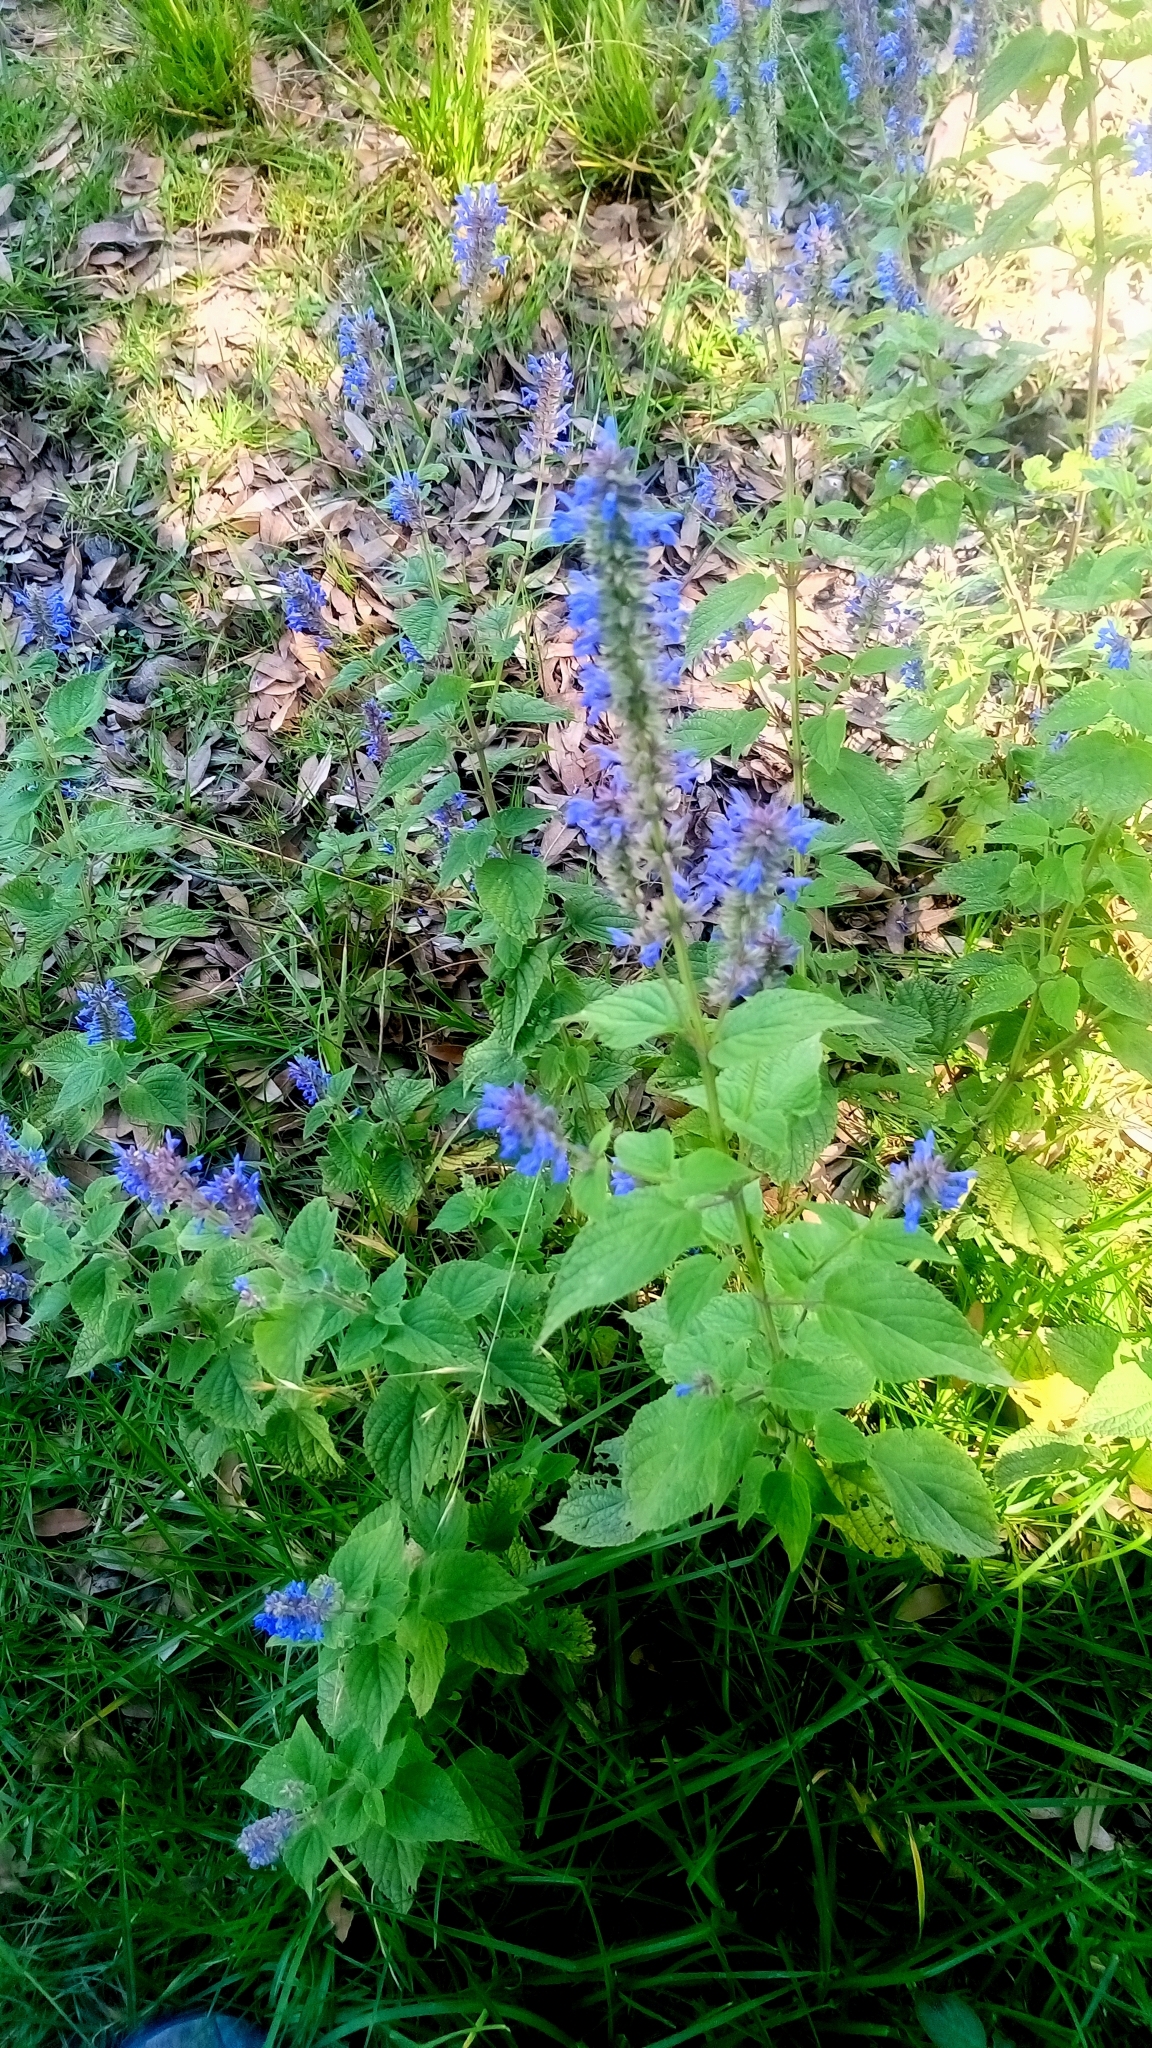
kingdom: Plantae
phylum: Tracheophyta
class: Magnoliopsida
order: Lamiales
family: Lamiaceae
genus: Salvia
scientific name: Salvia polystachia
